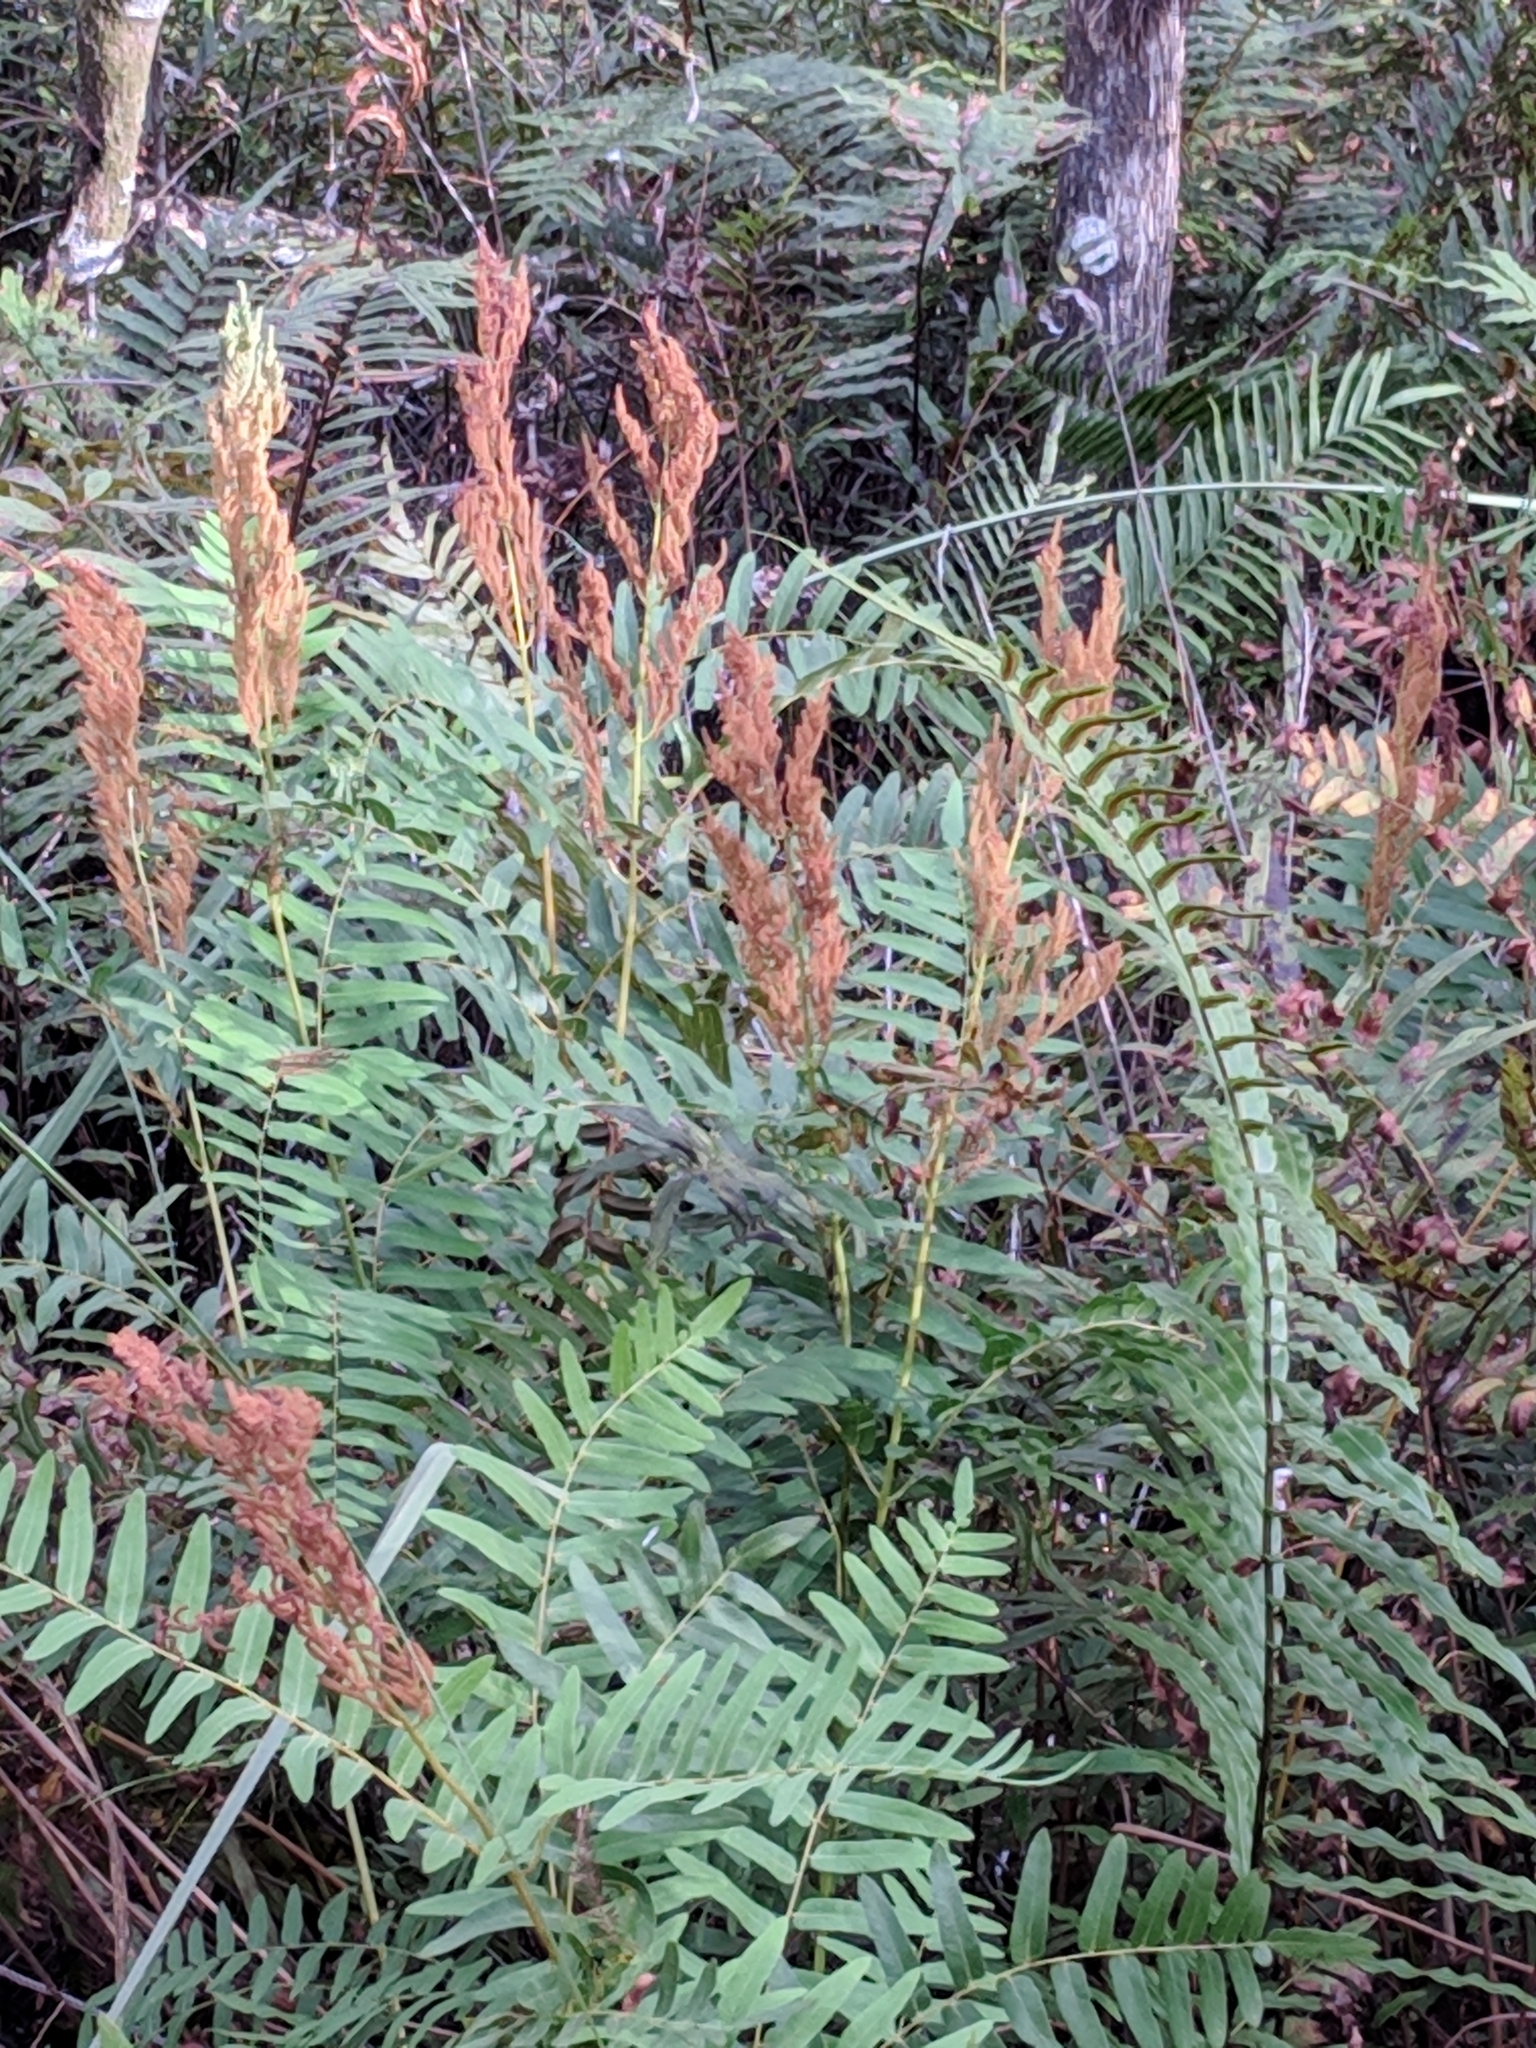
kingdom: Plantae
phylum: Tracheophyta
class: Polypodiopsida
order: Osmundales
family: Osmundaceae
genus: Osmunda
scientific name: Osmunda spectabilis
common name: American royal fern
